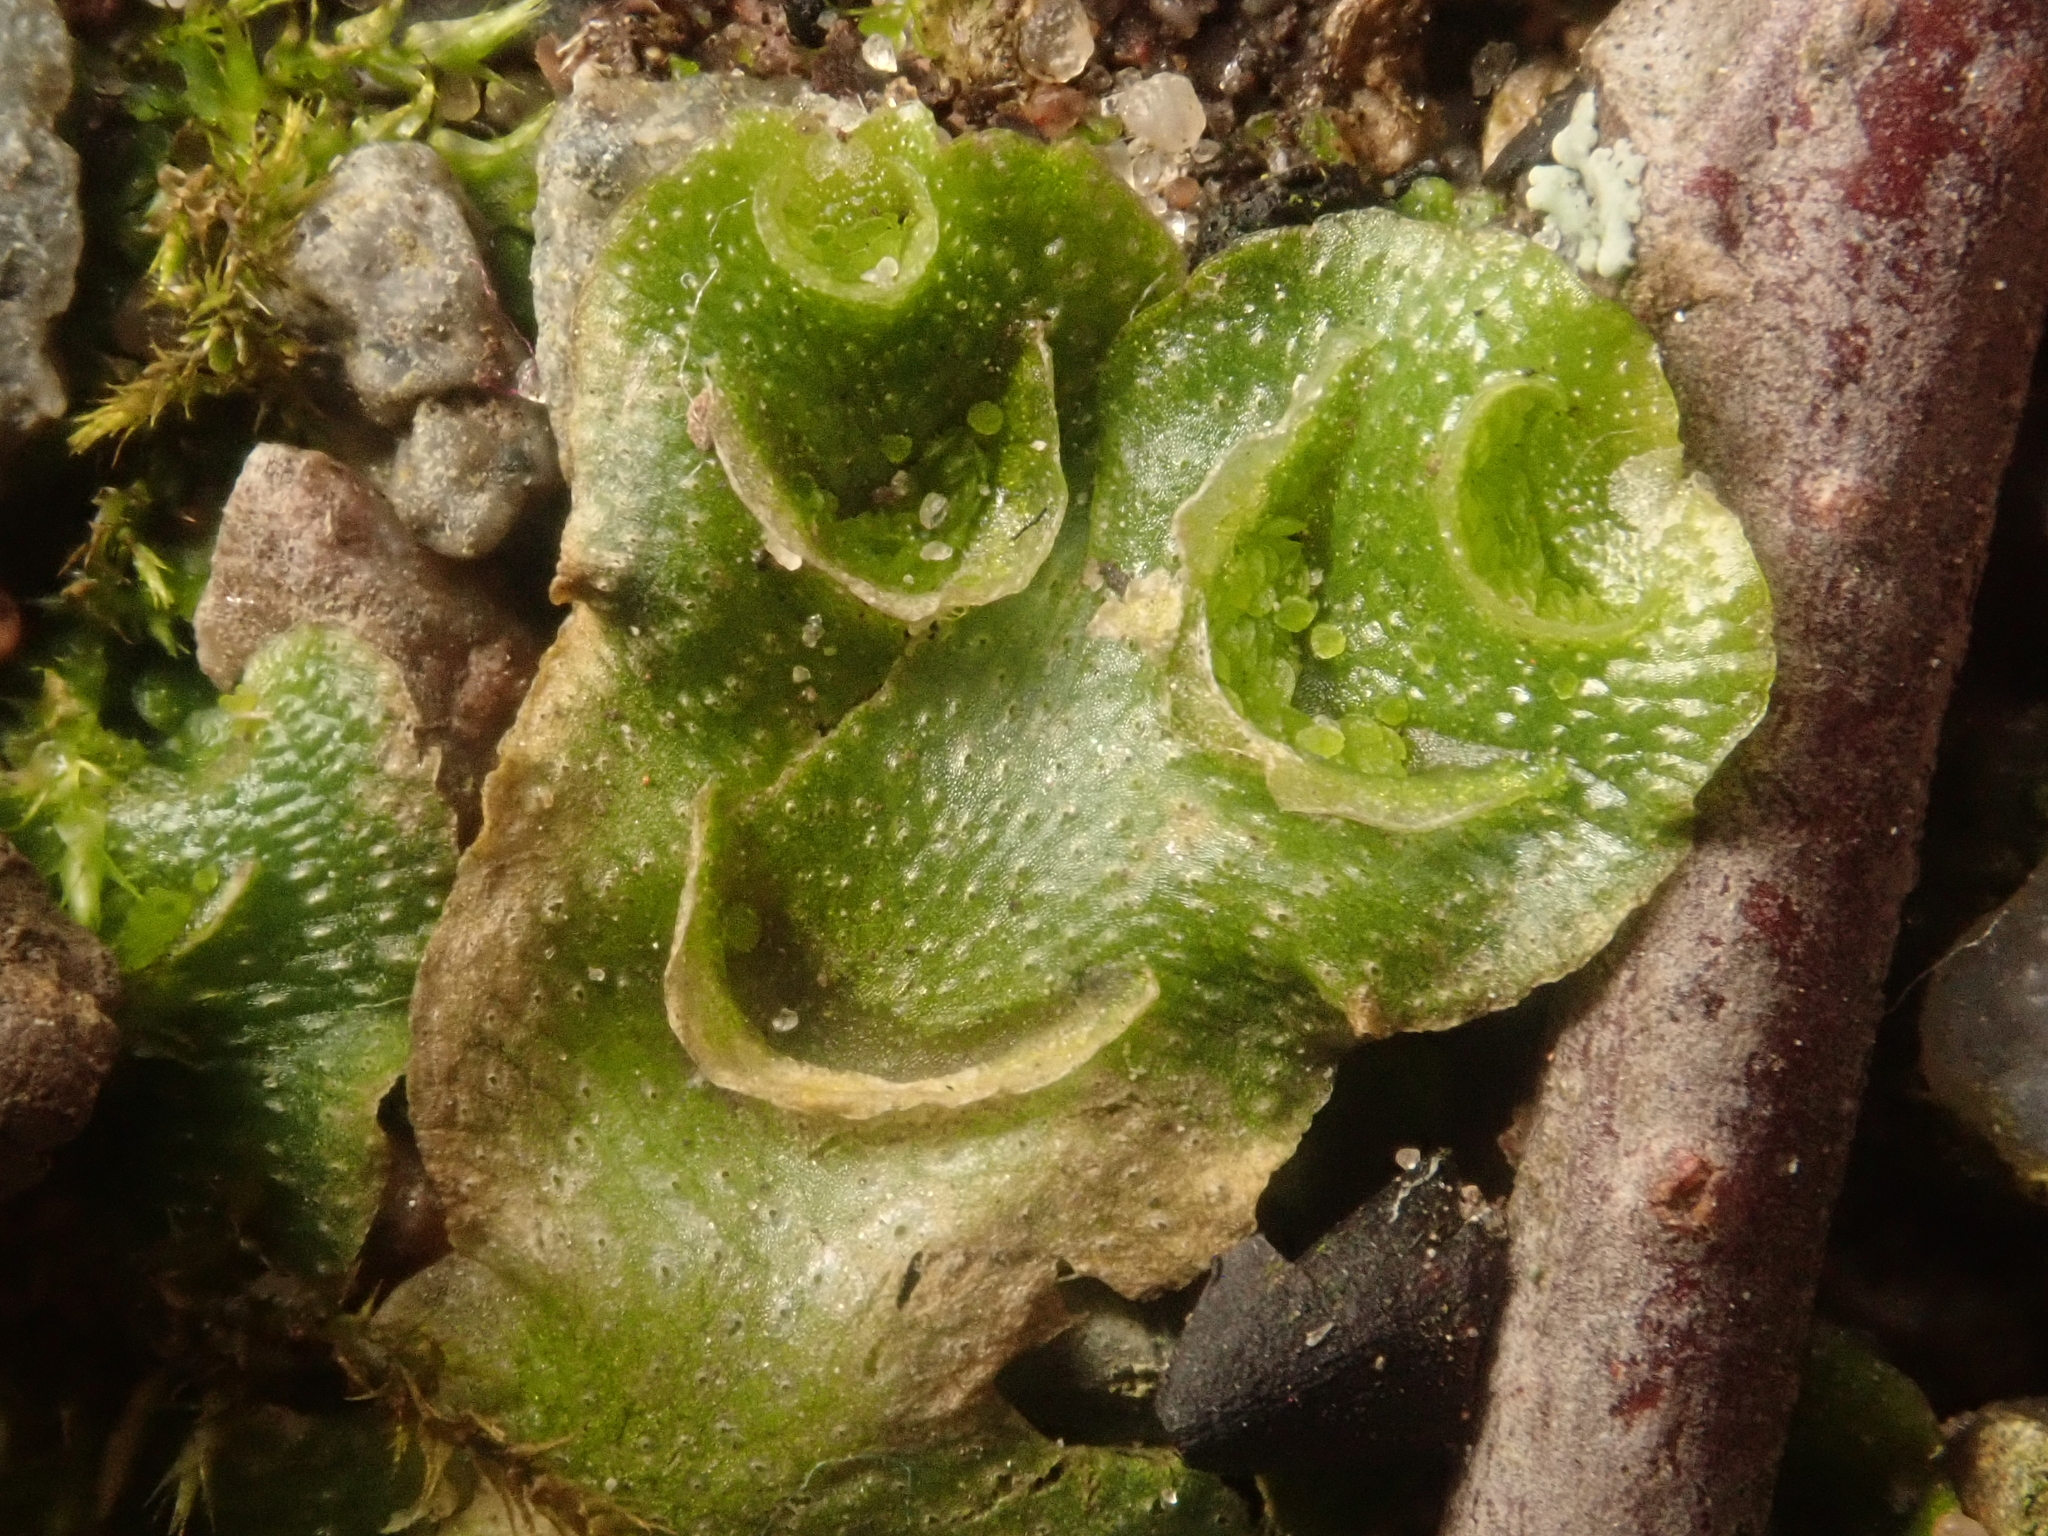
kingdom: Plantae
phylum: Marchantiophyta
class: Marchantiopsida
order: Lunulariales
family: Lunulariaceae
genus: Lunularia
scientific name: Lunularia cruciata
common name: Crescent-cup liverwort
